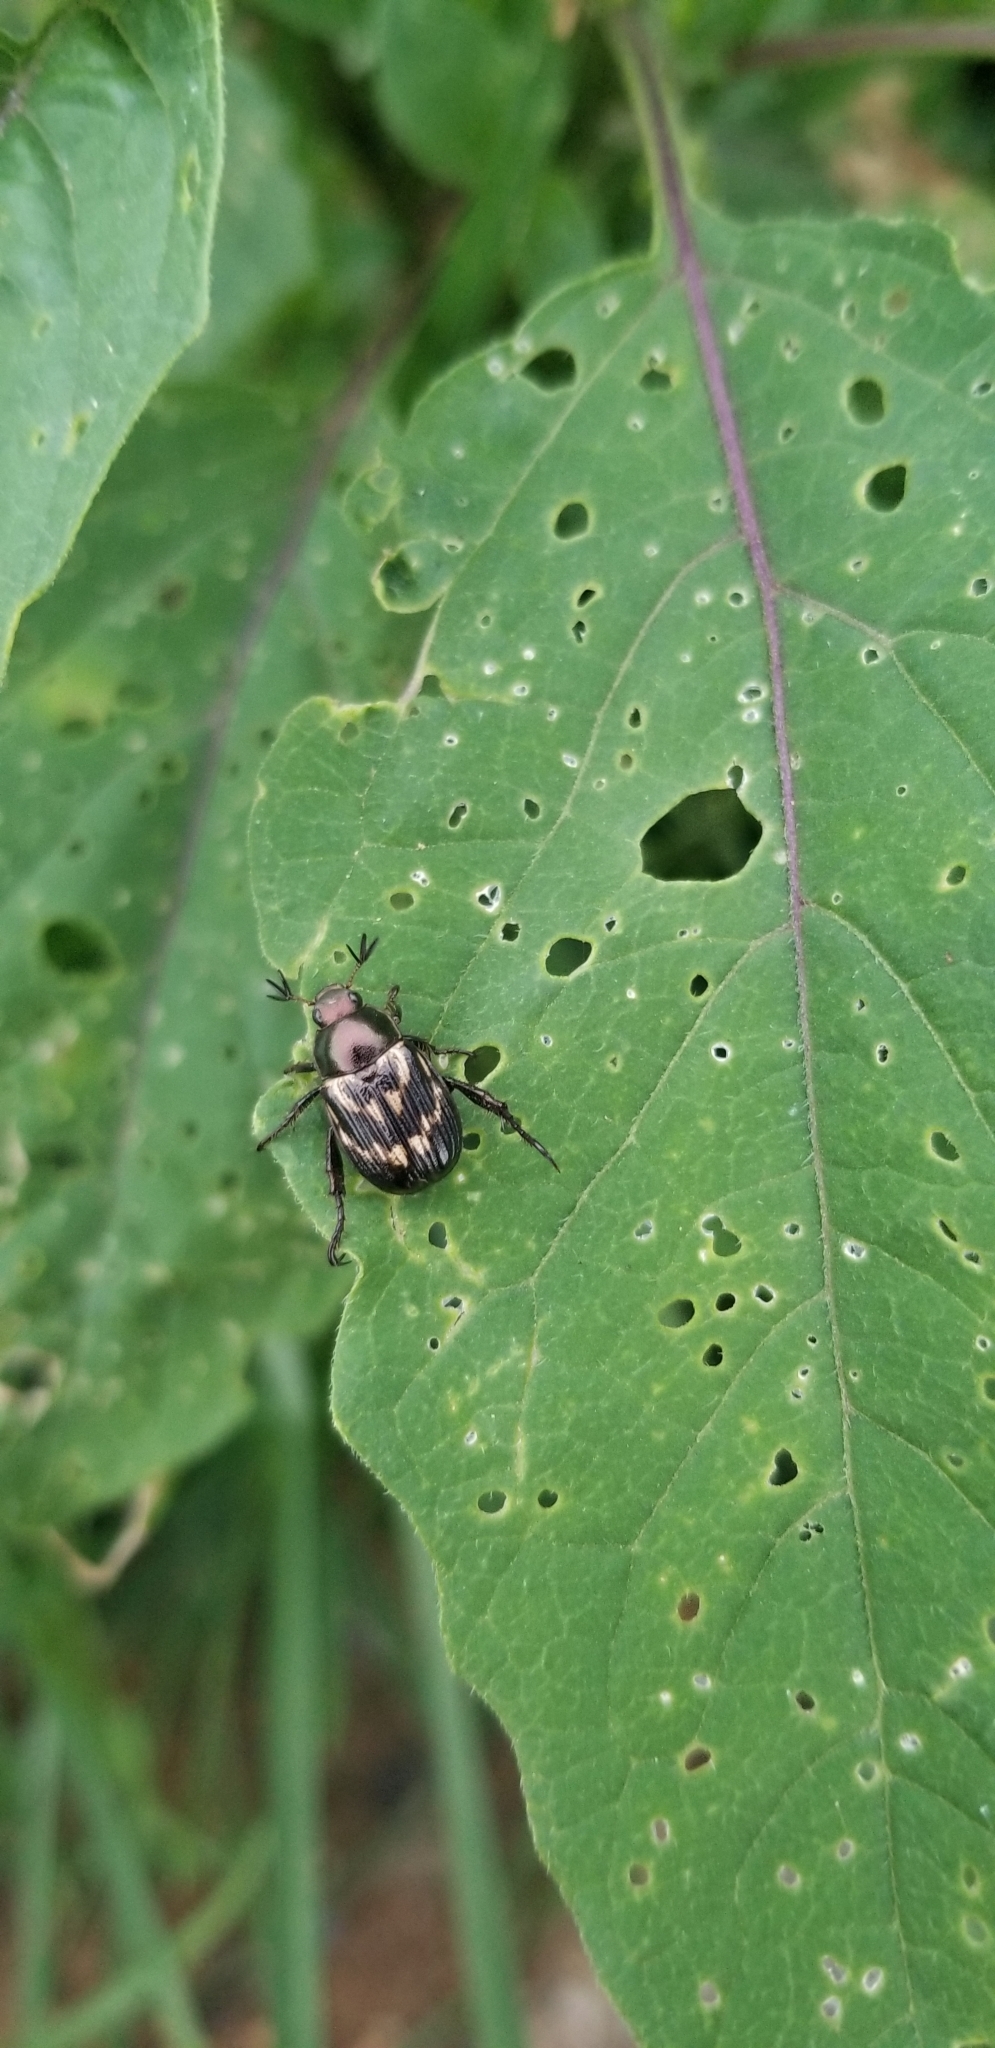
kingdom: Animalia
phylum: Arthropoda
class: Insecta
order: Coleoptera
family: Scarabaeidae
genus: Exomala
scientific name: Exomala orientalis
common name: Oriental beetle
